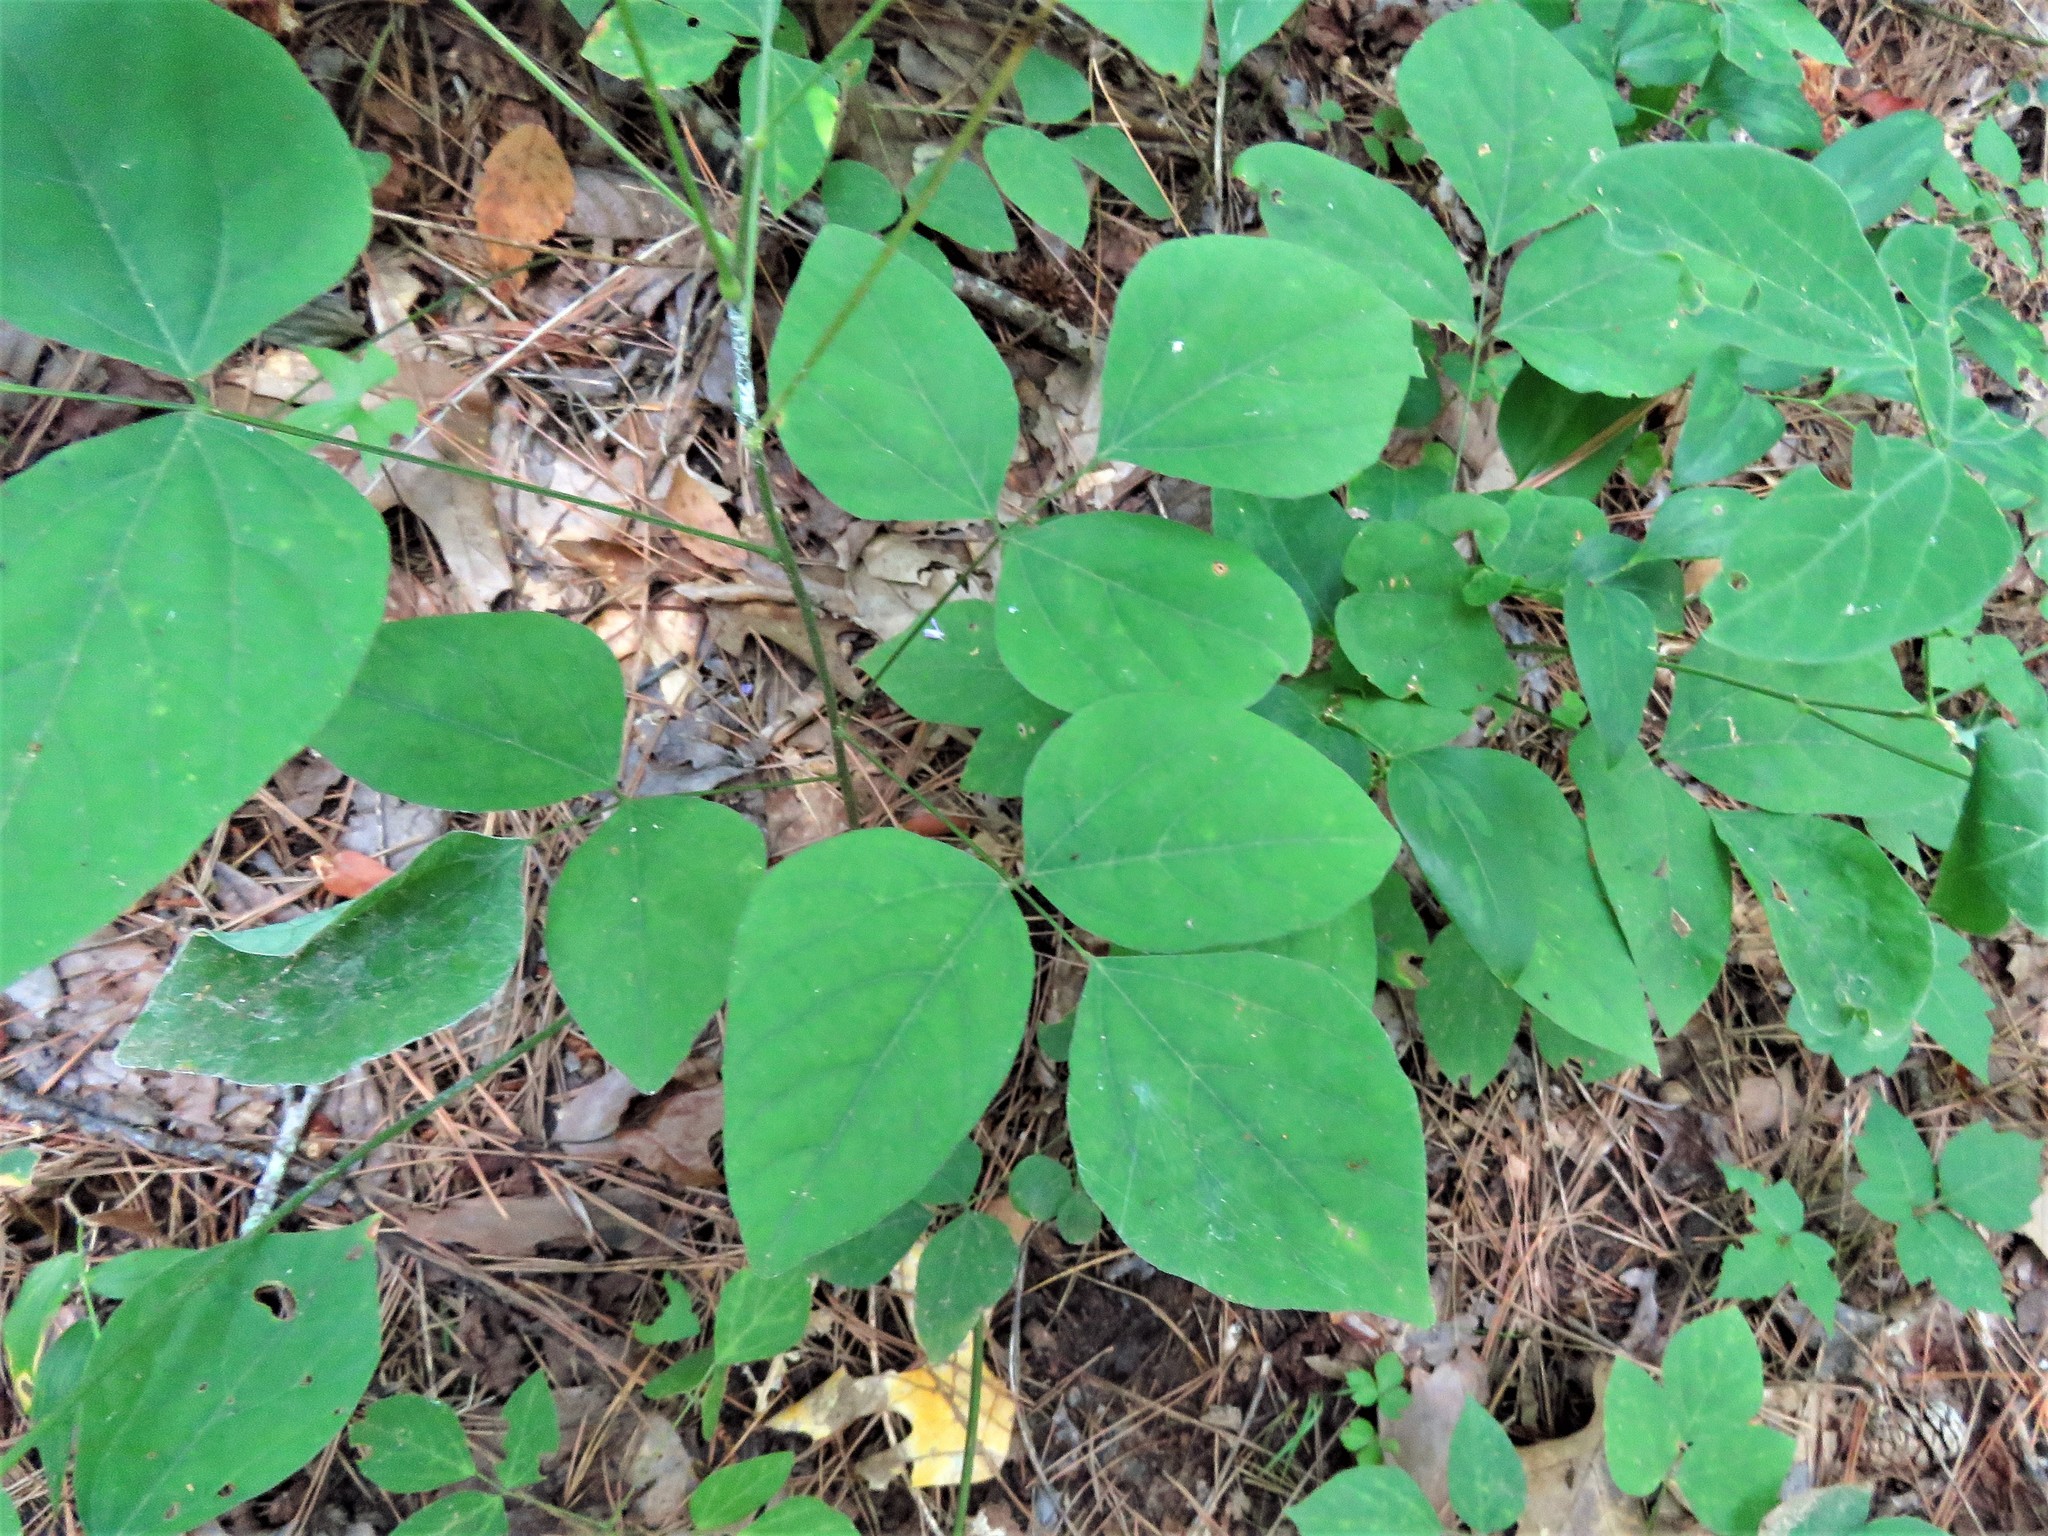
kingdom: Plantae
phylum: Tracheophyta
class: Magnoliopsida
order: Fabales
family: Fabaceae
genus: Hylodesmum
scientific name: Hylodesmum nudiflorum
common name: Bare-stemmed tick-trefoil
